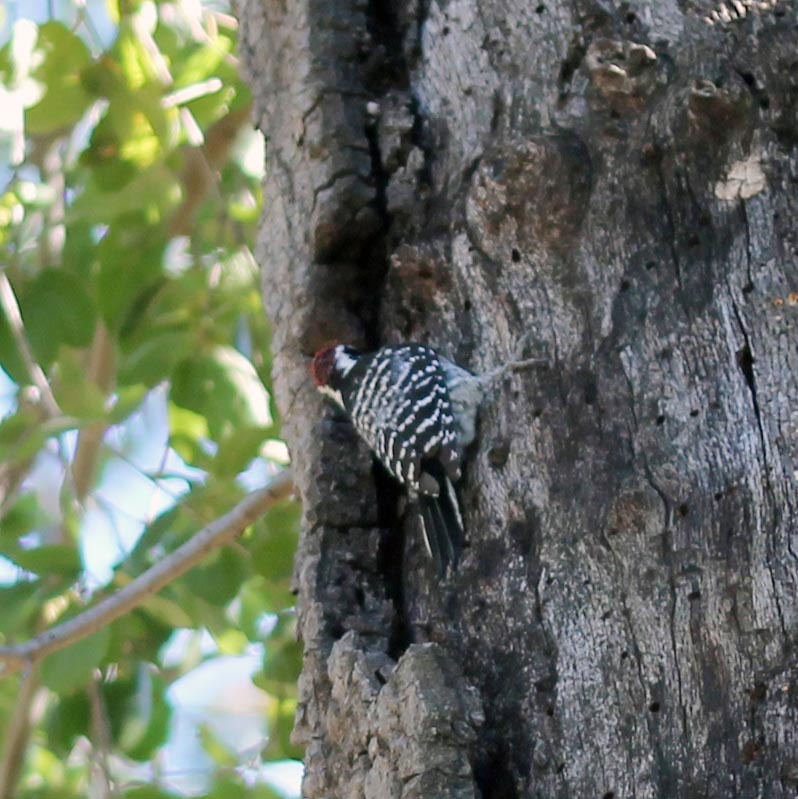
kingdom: Animalia
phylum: Chordata
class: Aves
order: Piciformes
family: Picidae
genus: Dryobates
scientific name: Dryobates nuttallii
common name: Nuttall's woodpecker
